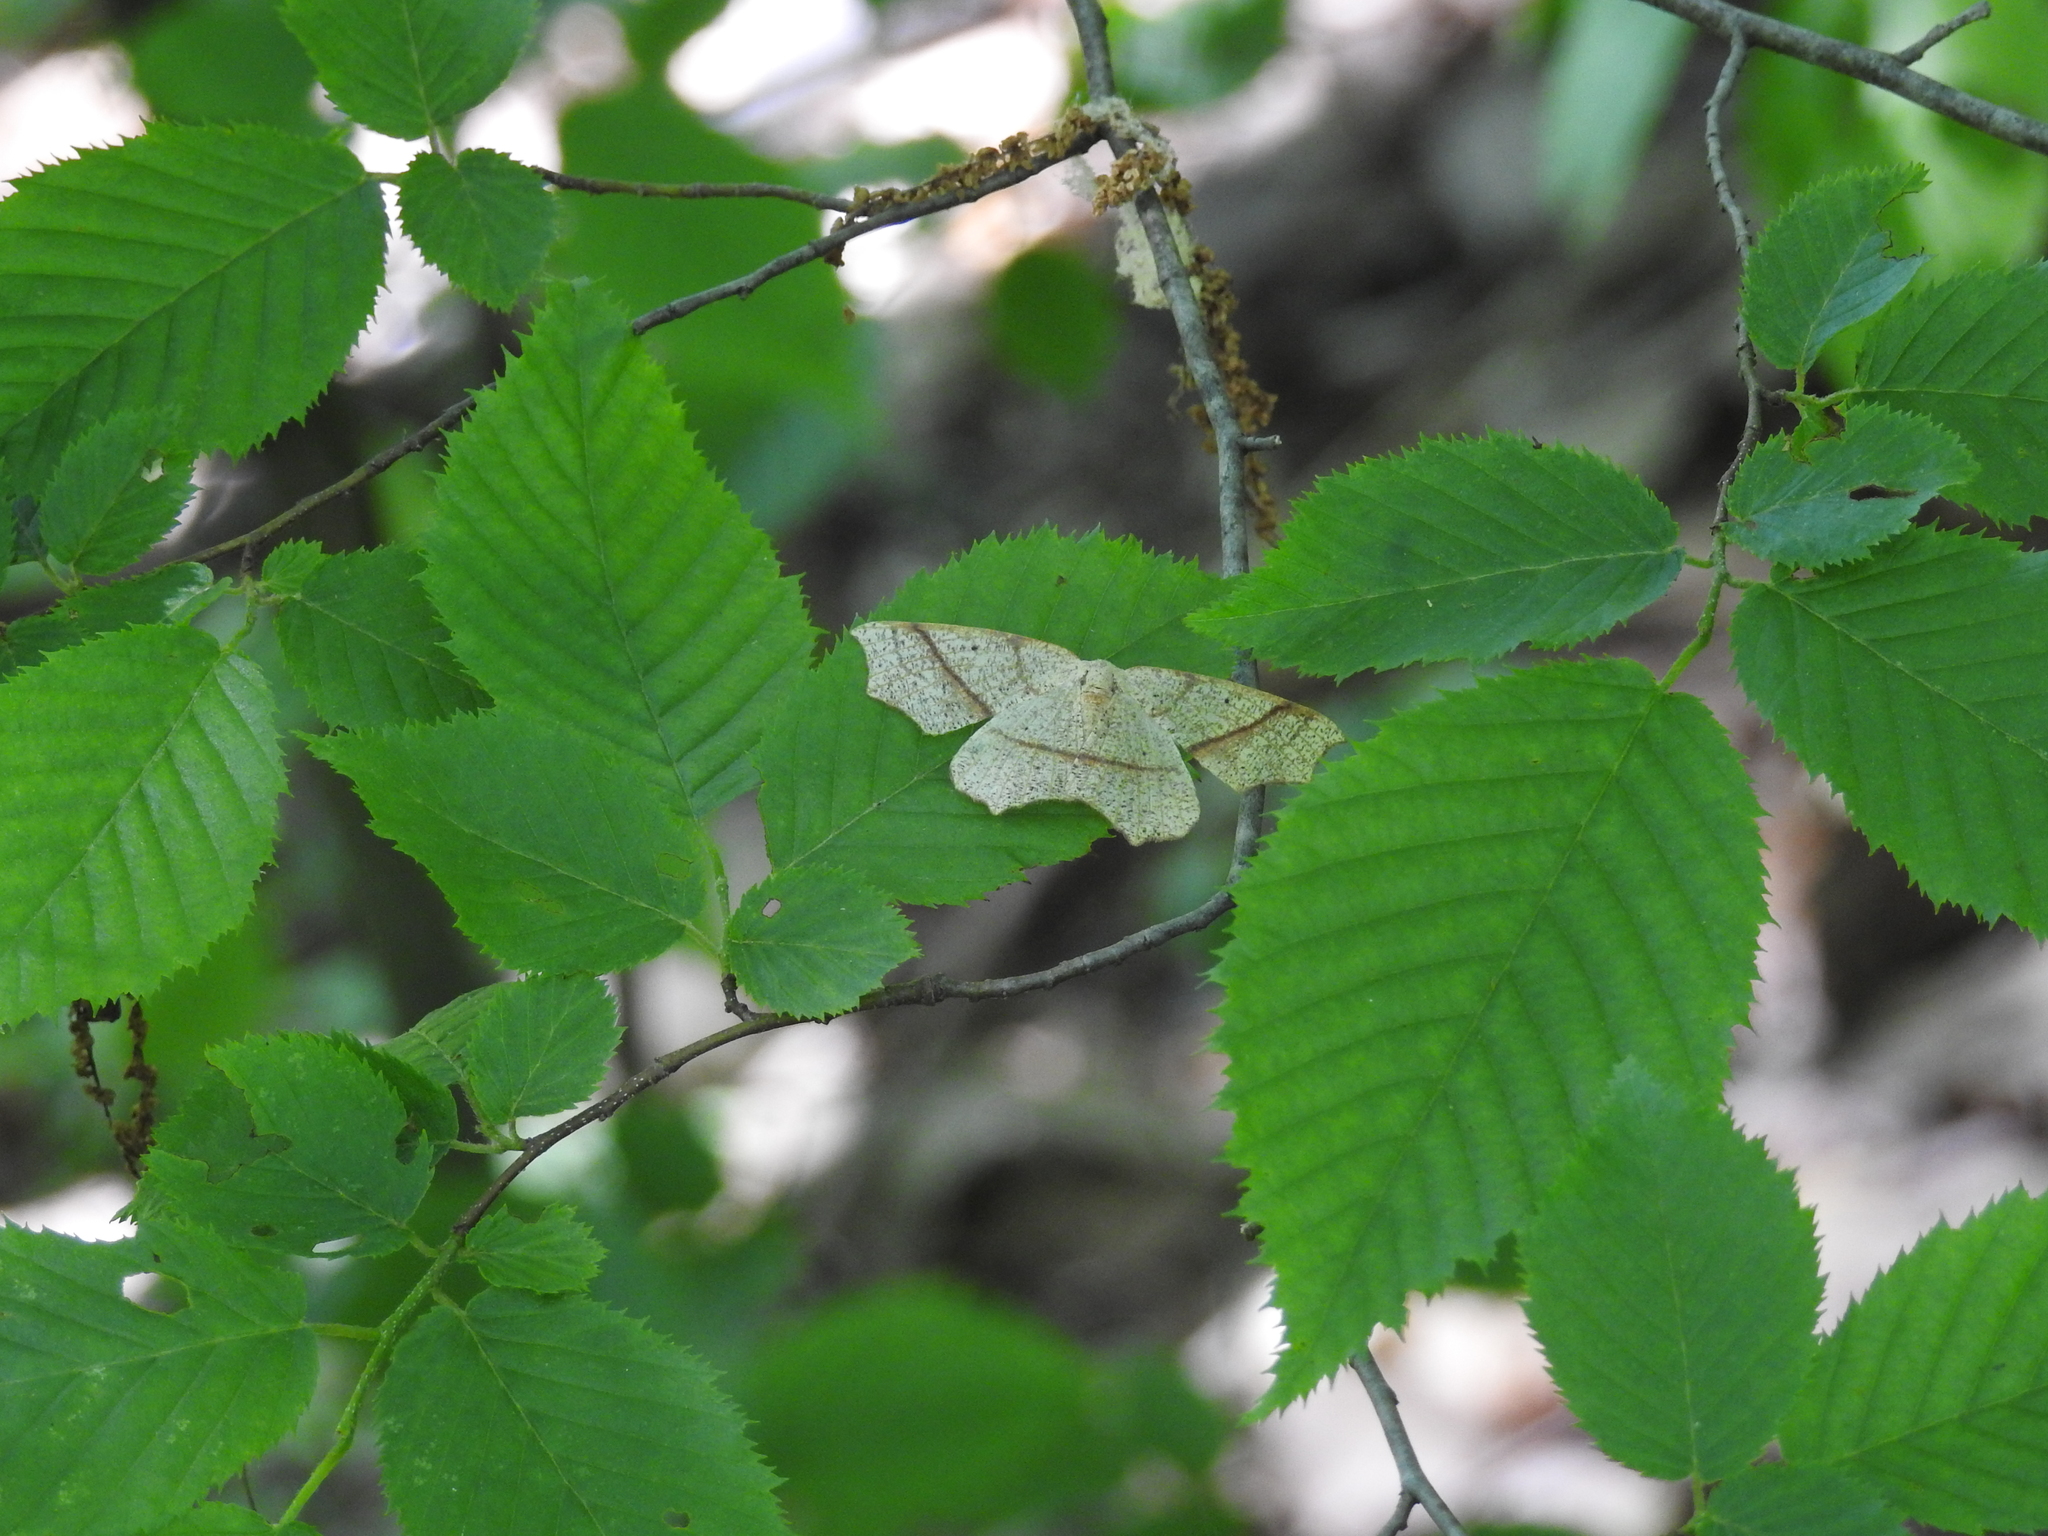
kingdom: Animalia
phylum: Arthropoda
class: Insecta
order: Lepidoptera
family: Geometridae
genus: Besma
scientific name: Besma quercivoraria
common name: Oak besma
